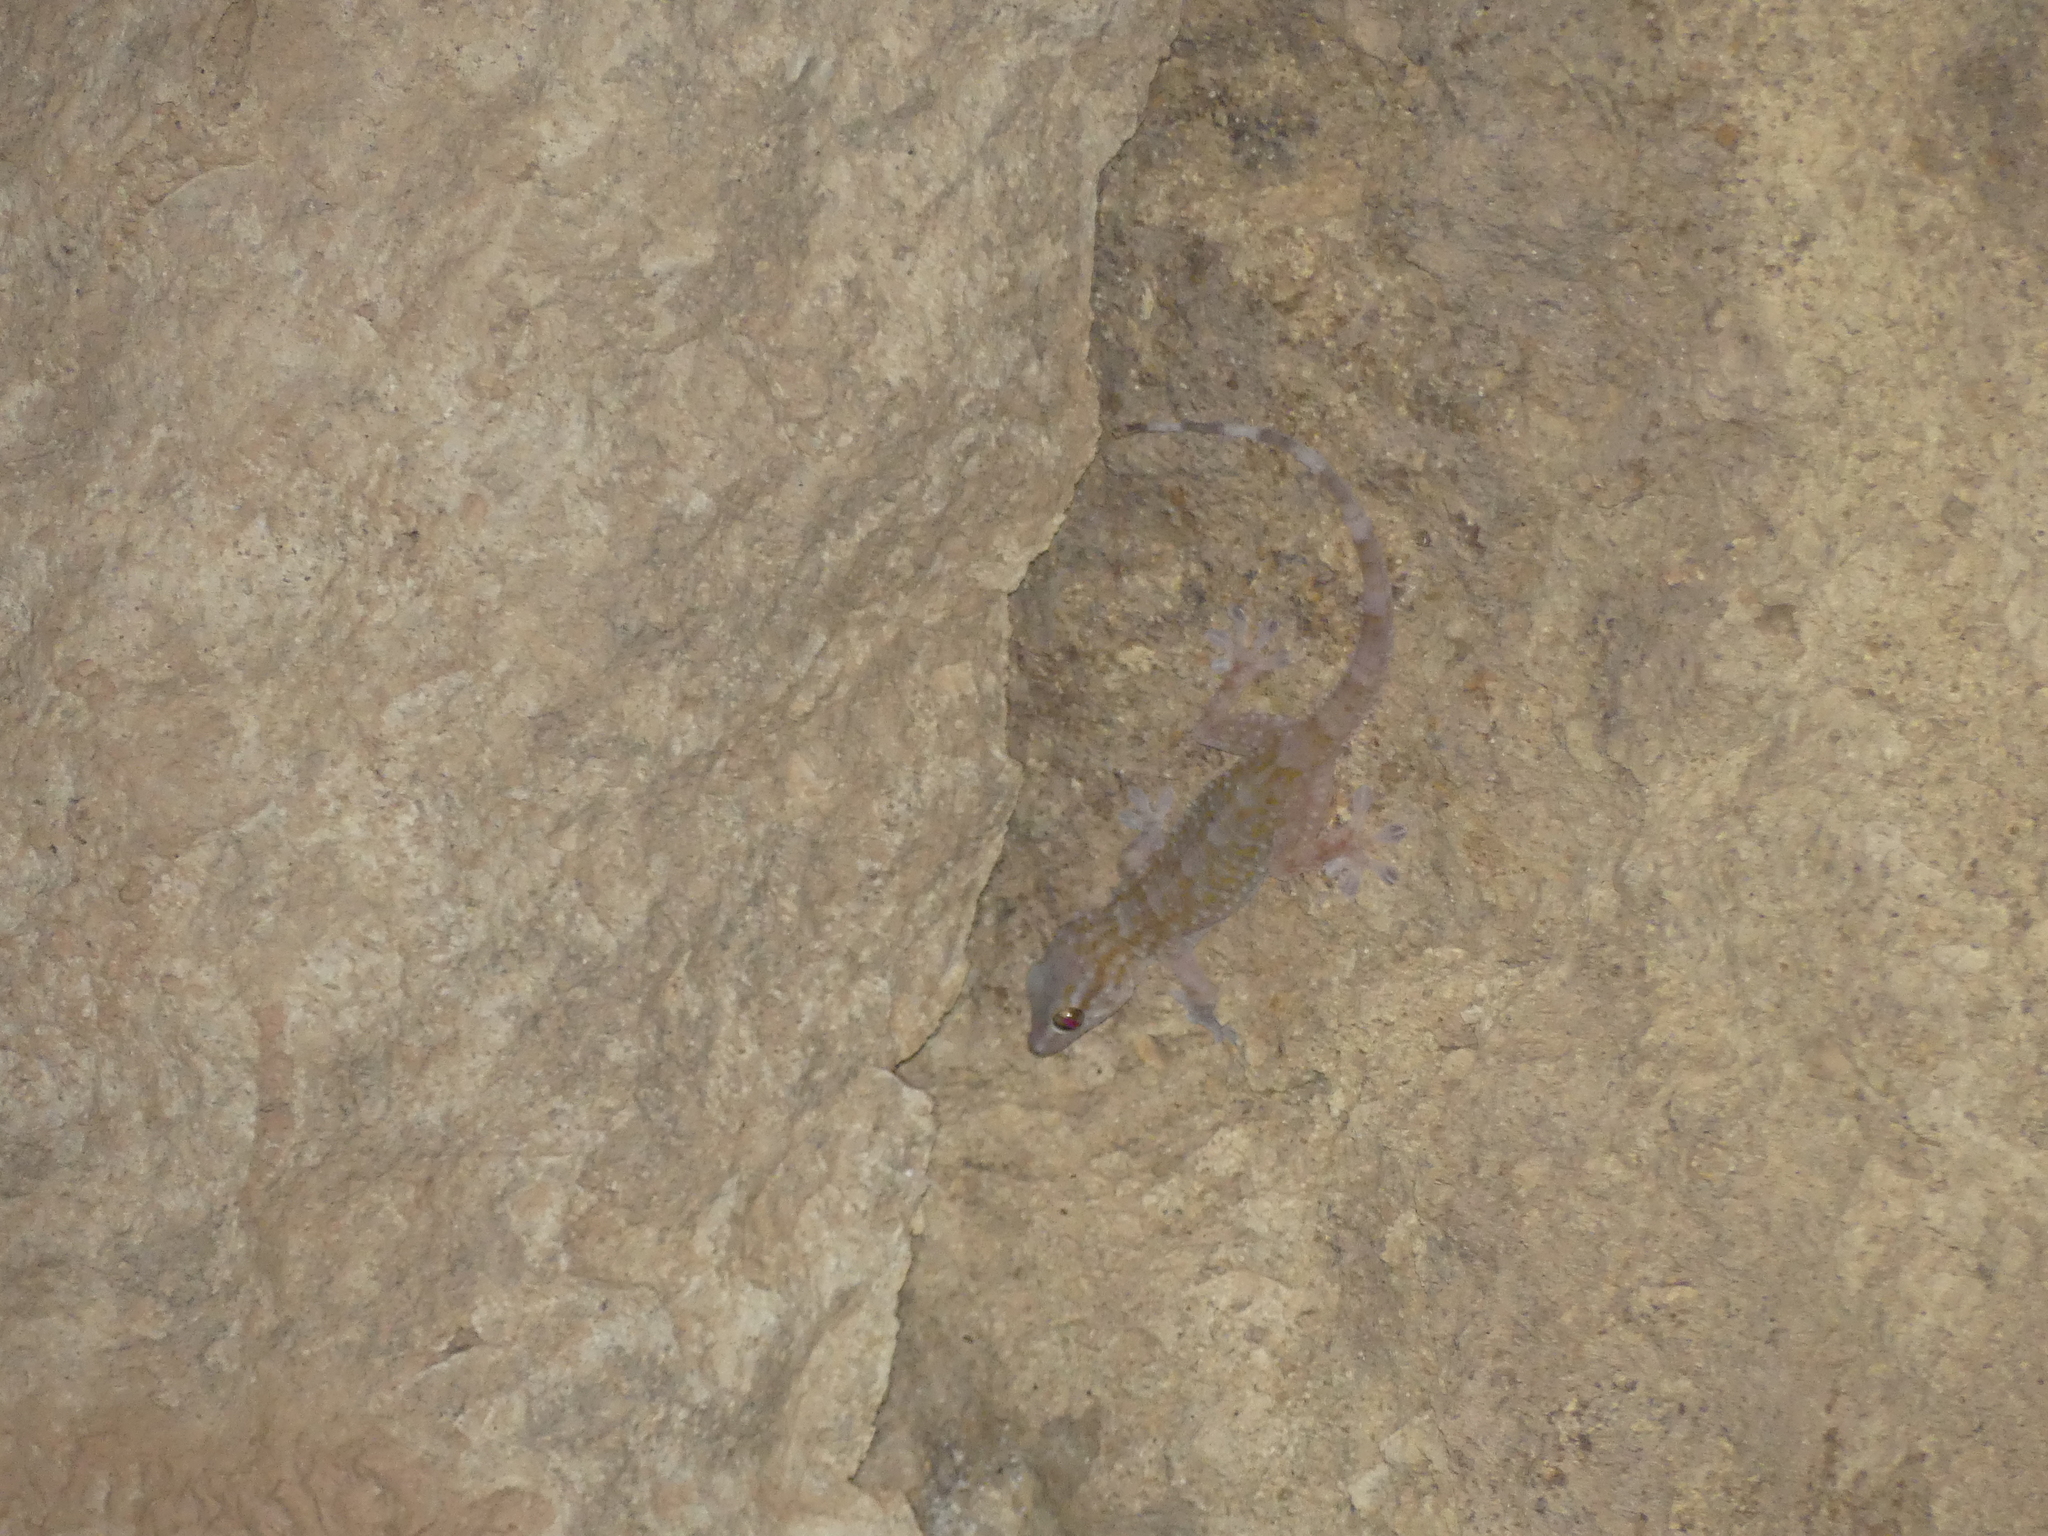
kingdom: Animalia
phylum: Chordata
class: Squamata
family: Phyllodactylidae
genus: Tarentola
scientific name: Tarentola boehmei
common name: Böhme's gecko
